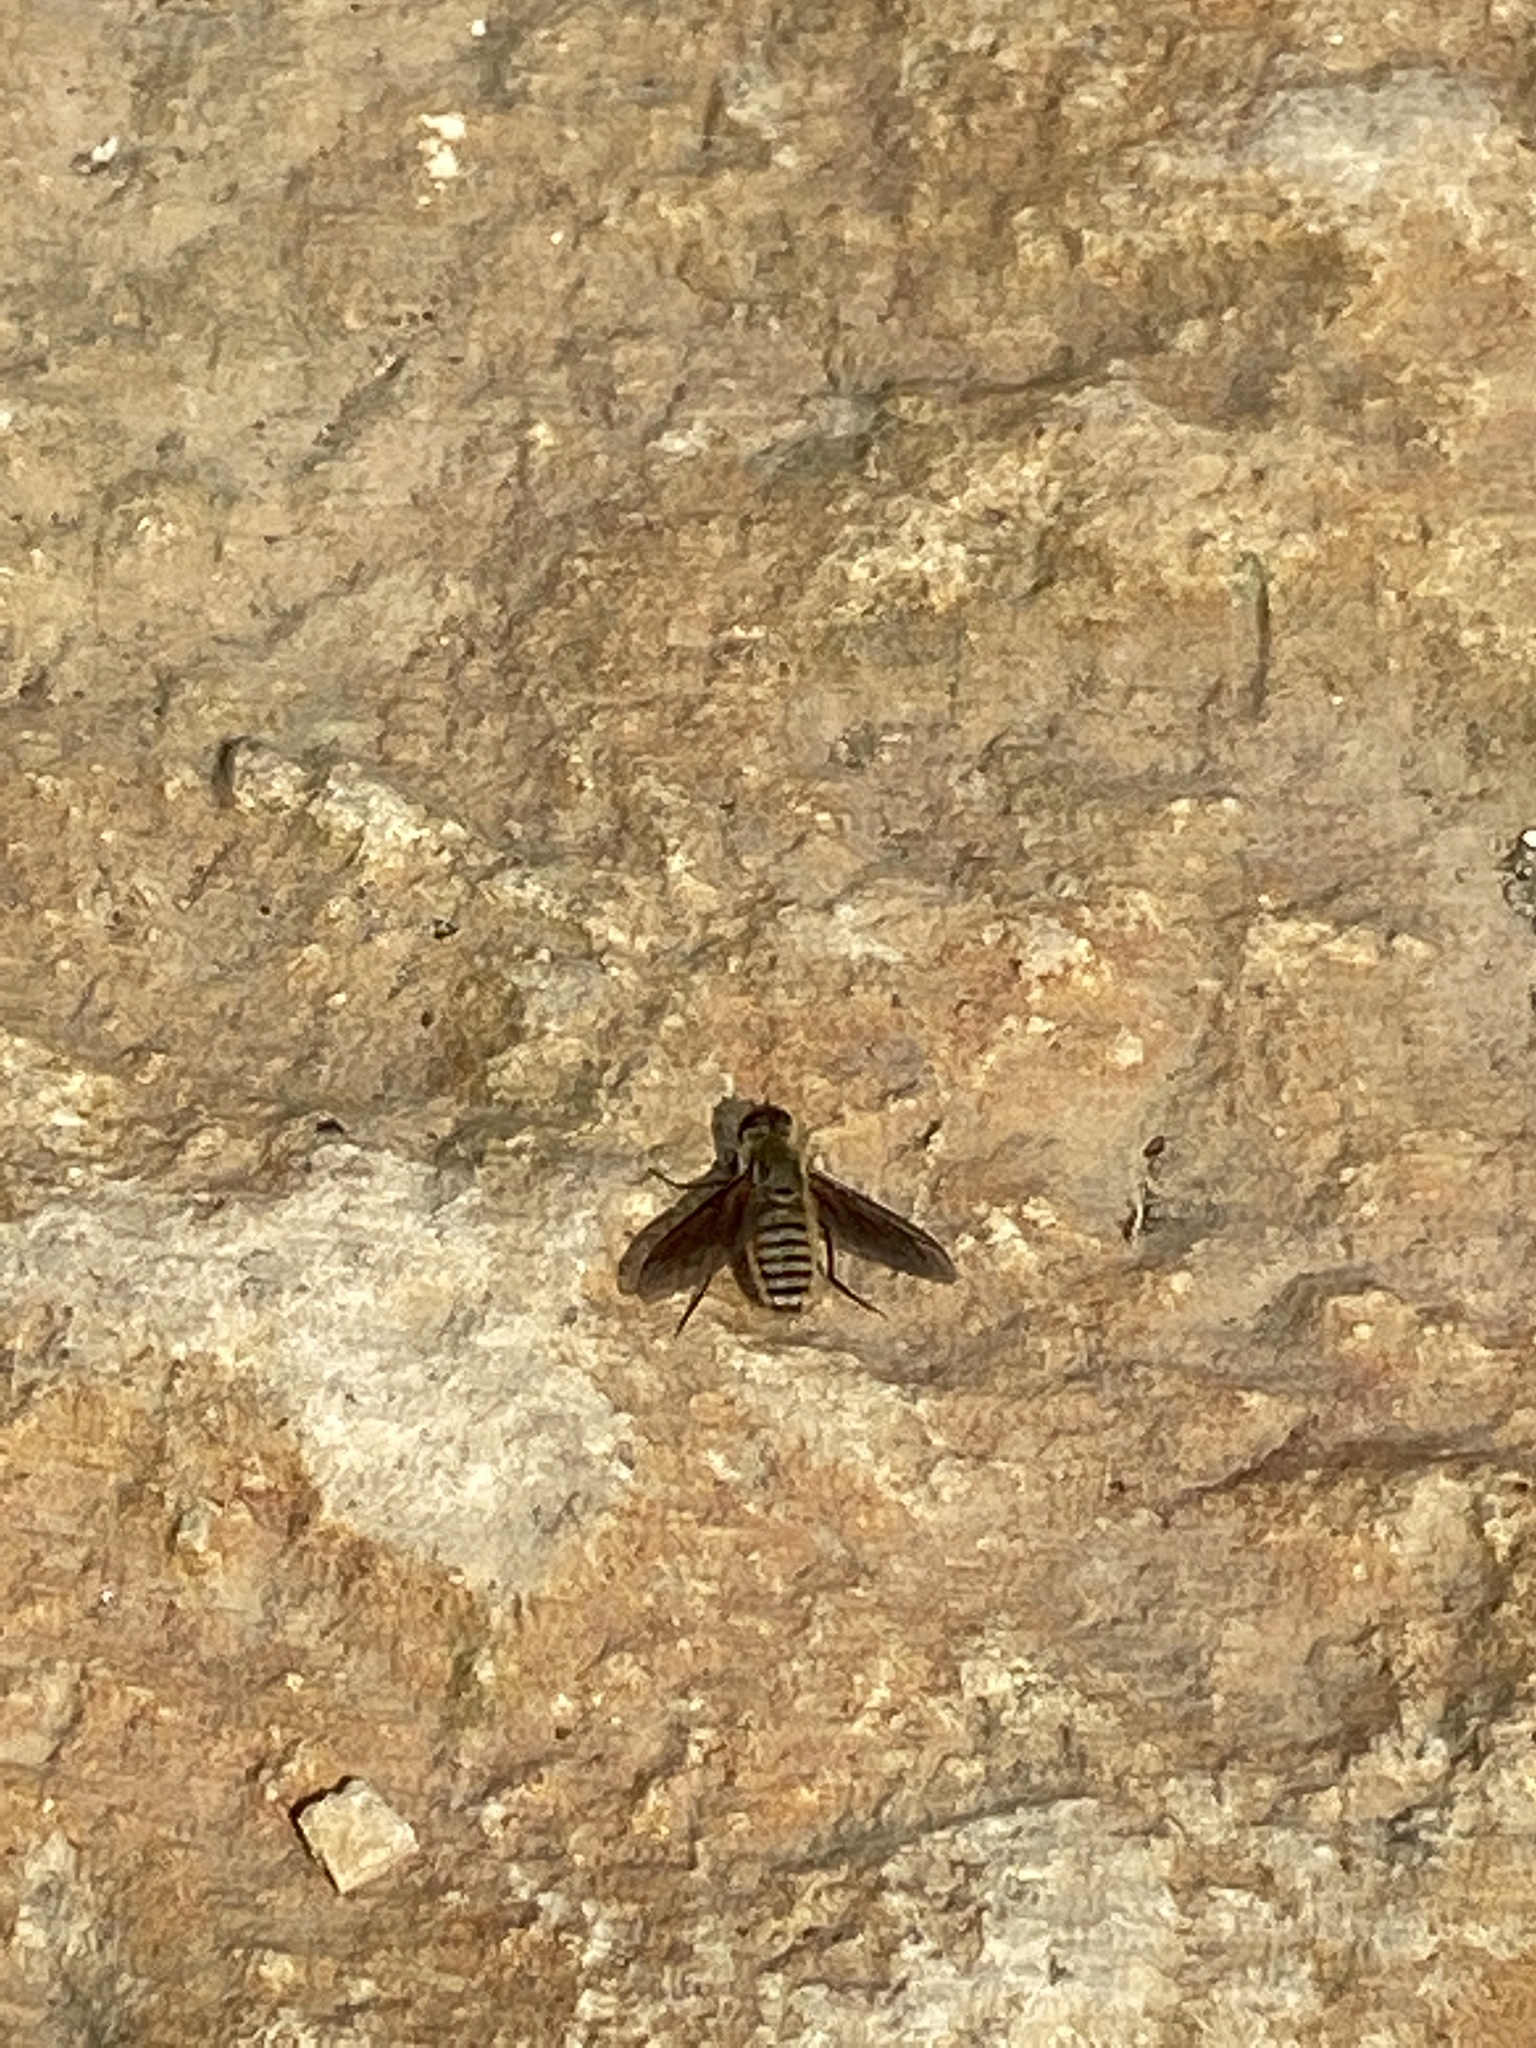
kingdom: Animalia
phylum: Arthropoda
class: Insecta
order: Diptera
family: Bombyliidae
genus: Poecilanthrax
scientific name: Poecilanthrax lucifer
